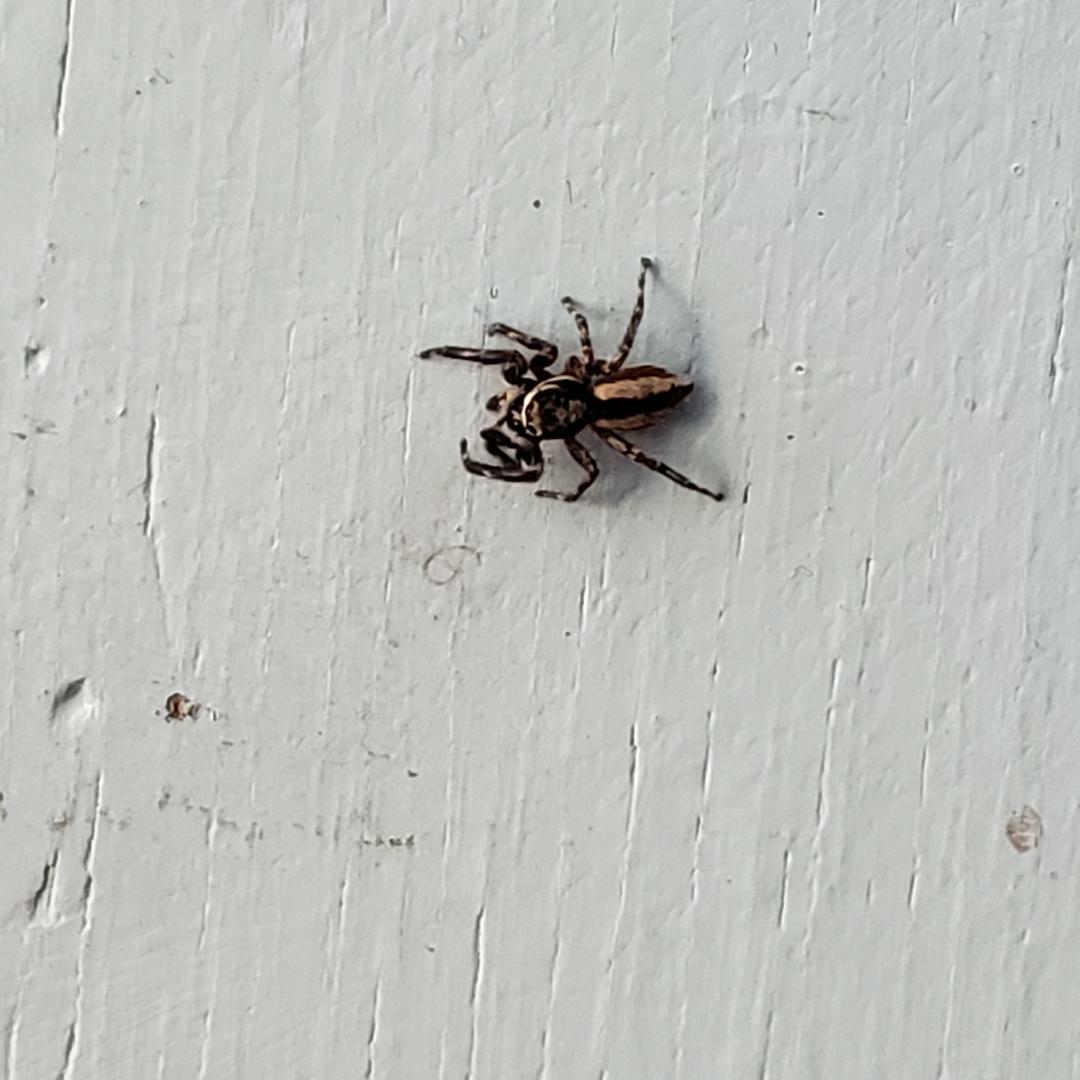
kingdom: Animalia
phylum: Arthropoda
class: Arachnida
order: Araneae
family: Salticidae
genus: Menemerus
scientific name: Menemerus bivittatus
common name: Gray wall jumper
